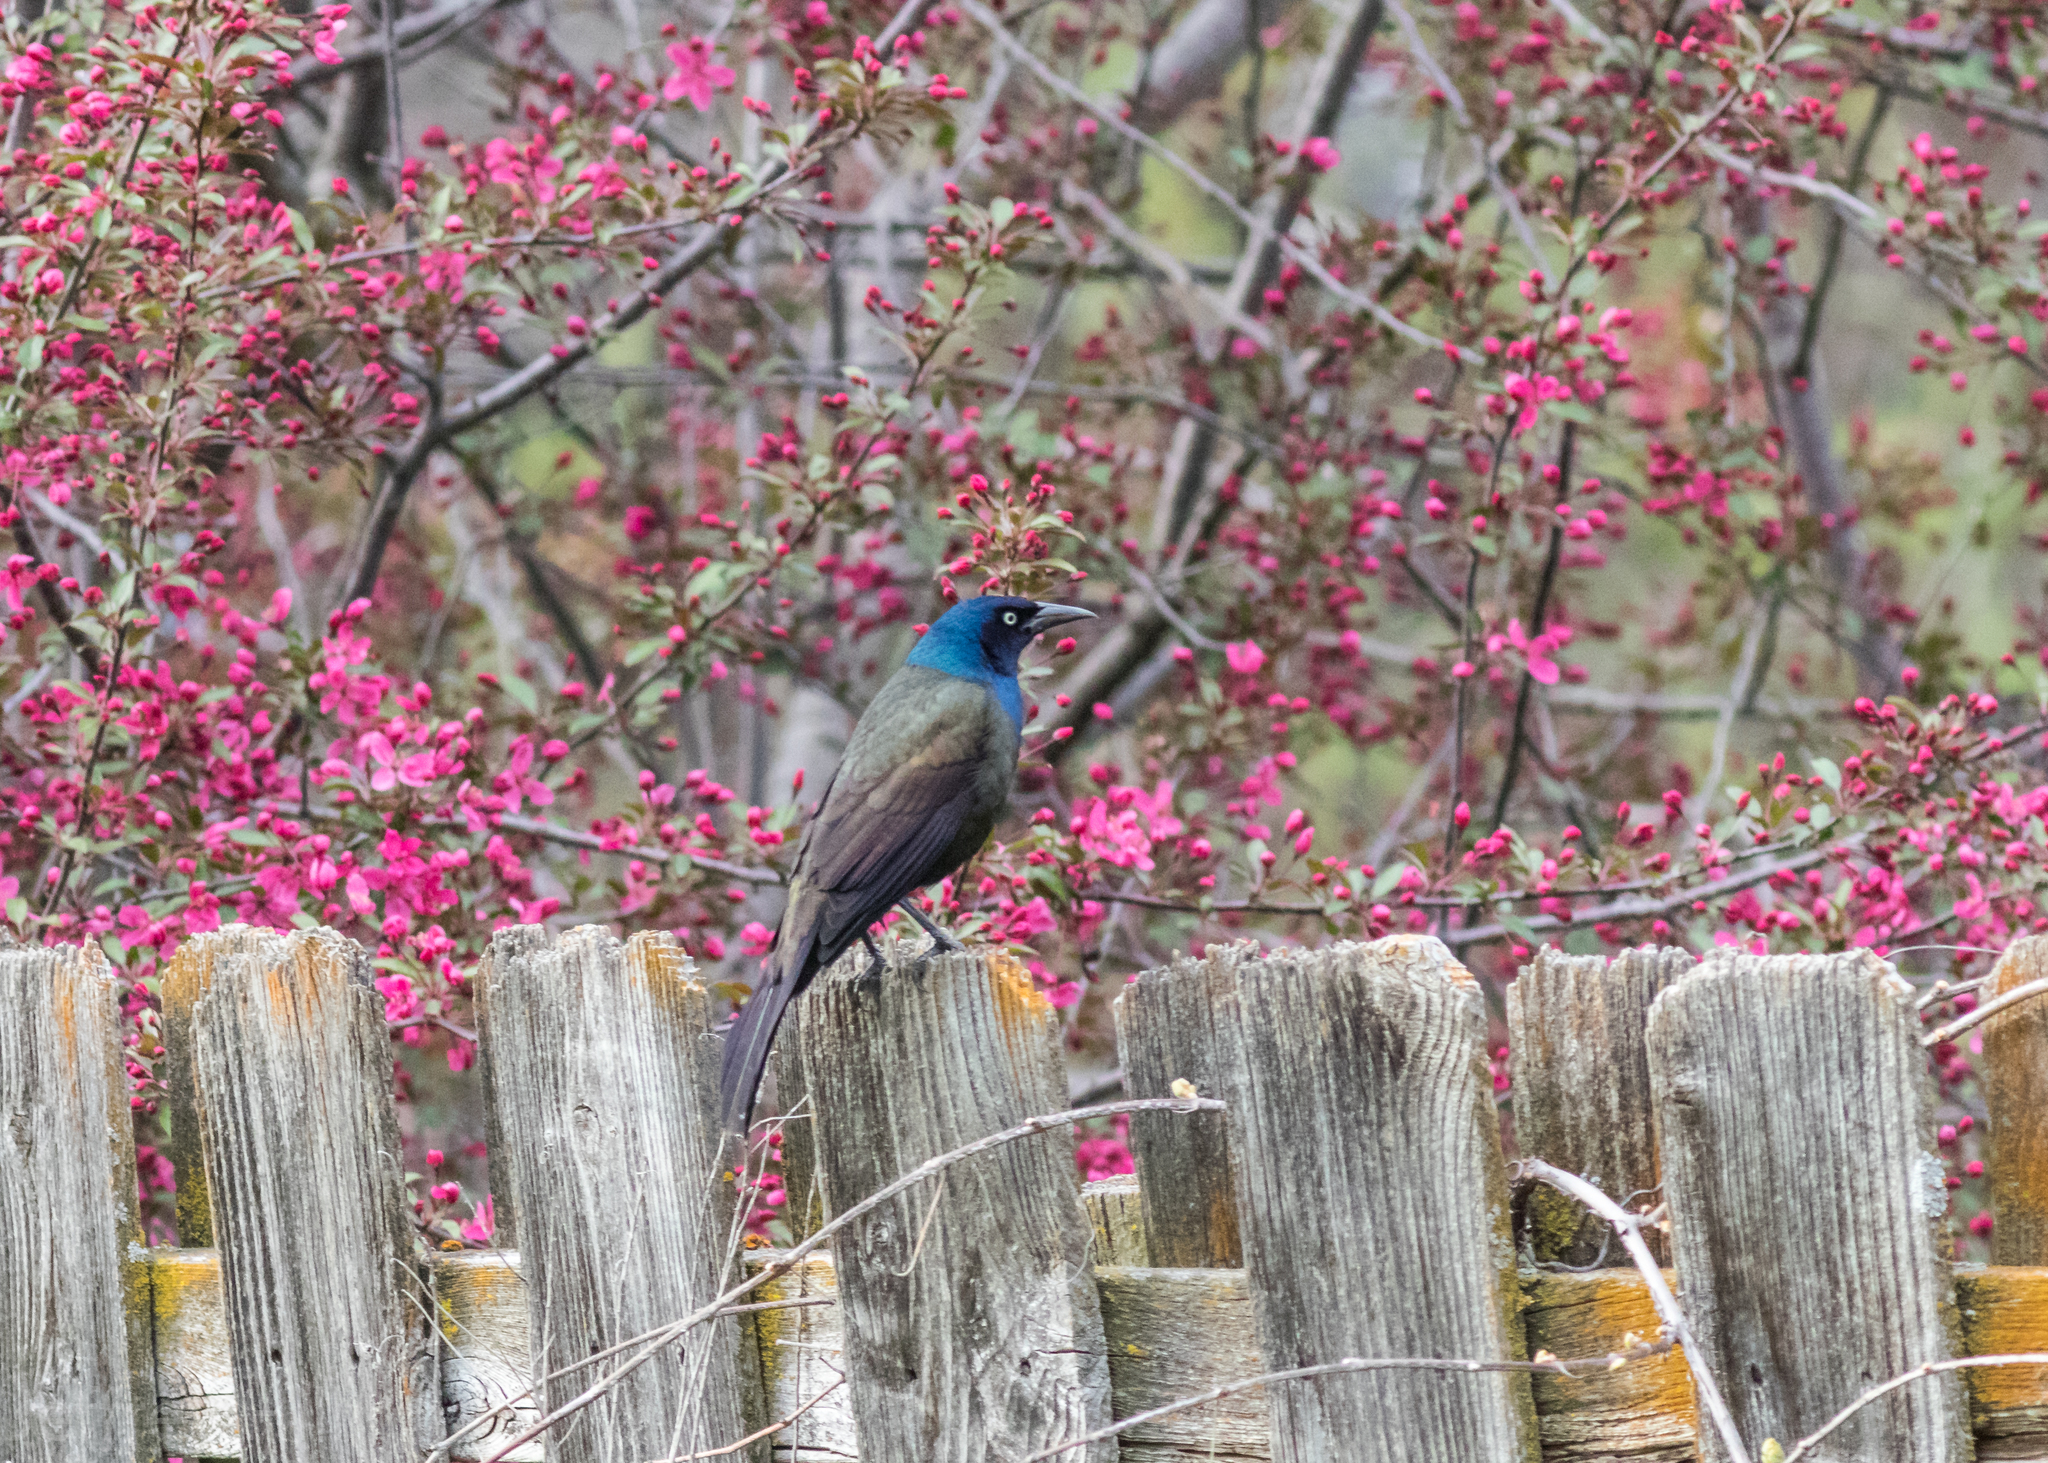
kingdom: Animalia
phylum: Chordata
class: Aves
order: Passeriformes
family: Icteridae
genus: Quiscalus
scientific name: Quiscalus quiscula
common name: Common grackle
